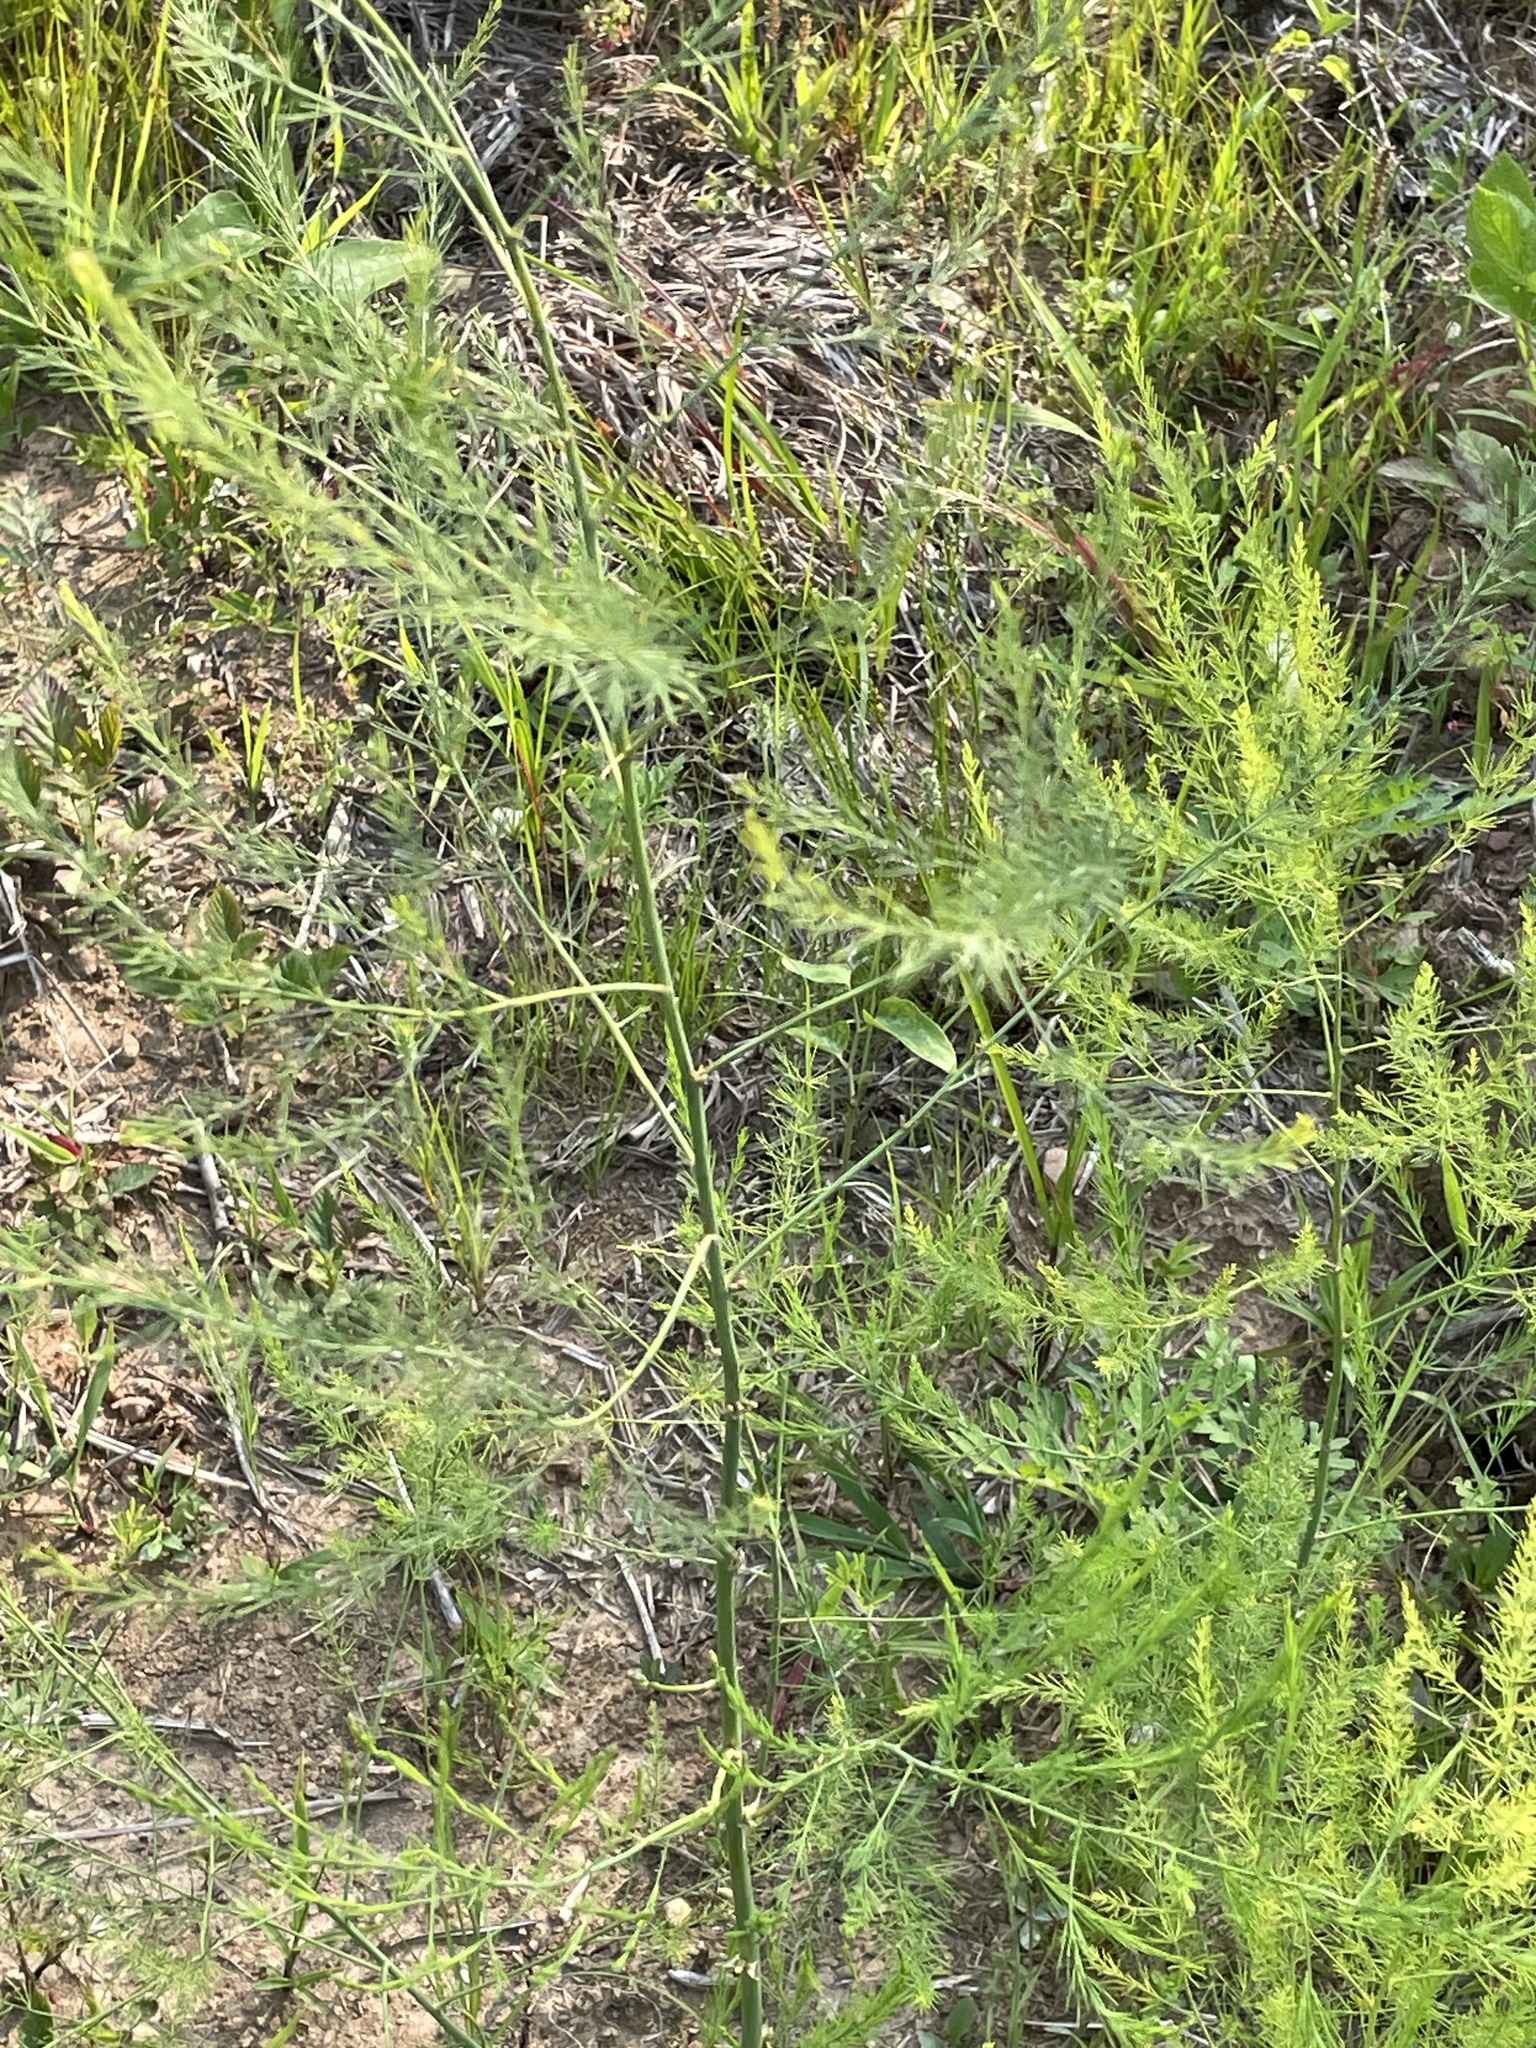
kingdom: Plantae
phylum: Tracheophyta
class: Liliopsida
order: Asparagales
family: Asparagaceae
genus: Asparagus
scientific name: Asparagus officinalis
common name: Garden asparagus
